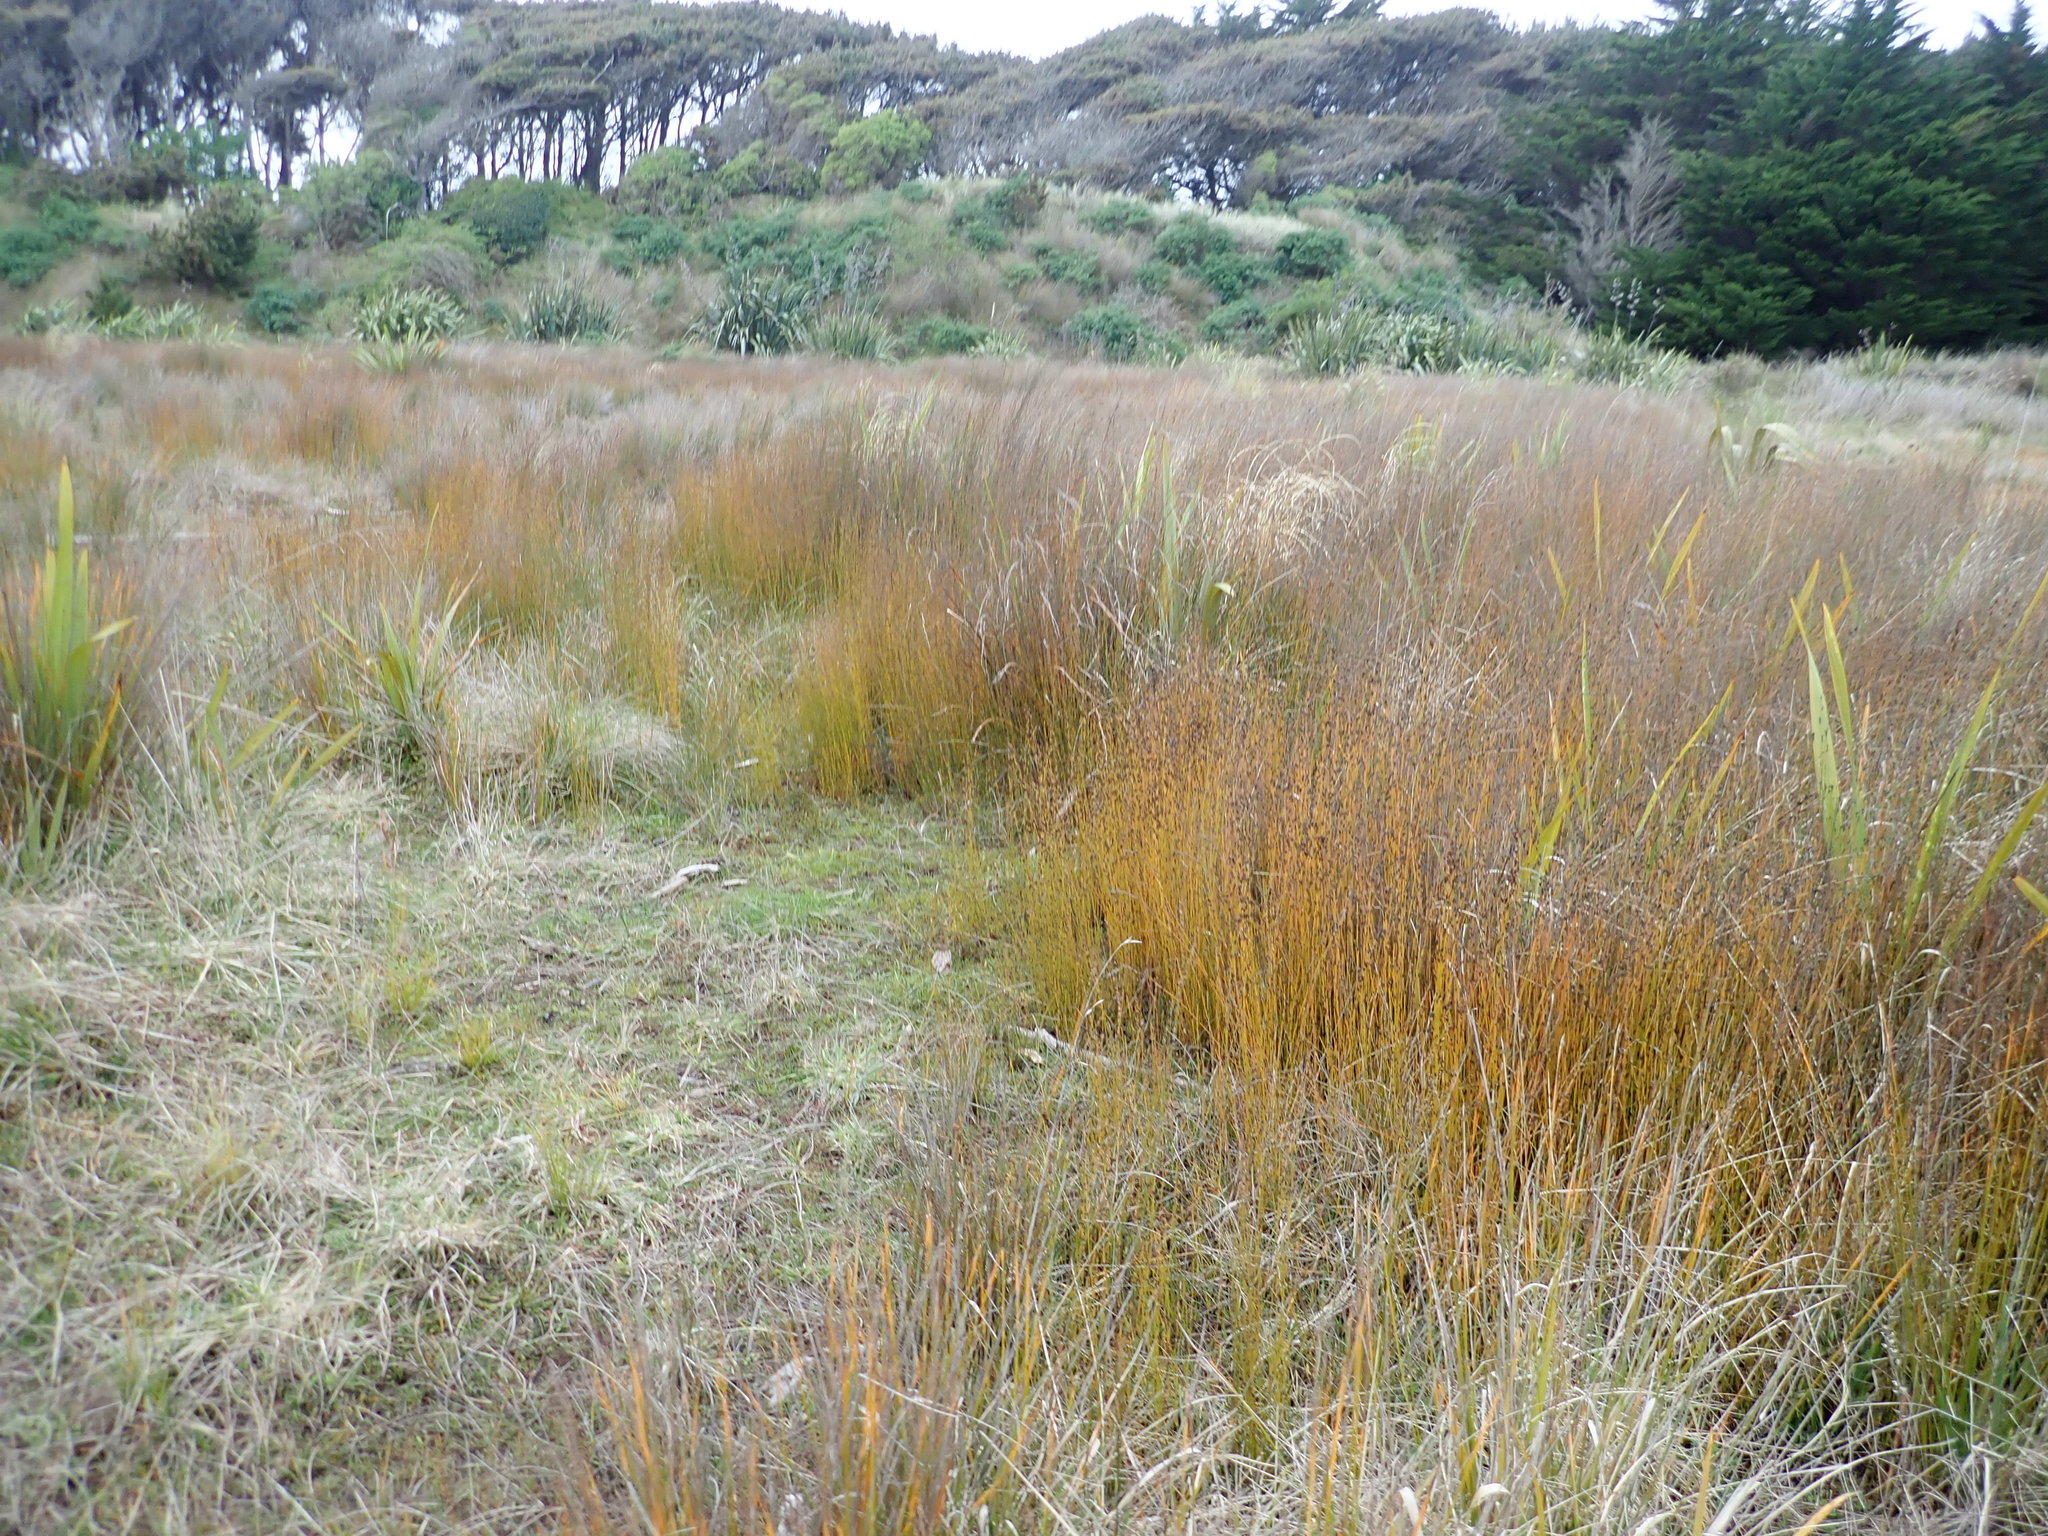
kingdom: Plantae
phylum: Tracheophyta
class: Liliopsida
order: Poales
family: Restionaceae
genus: Apodasmia
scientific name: Apodasmia similis
